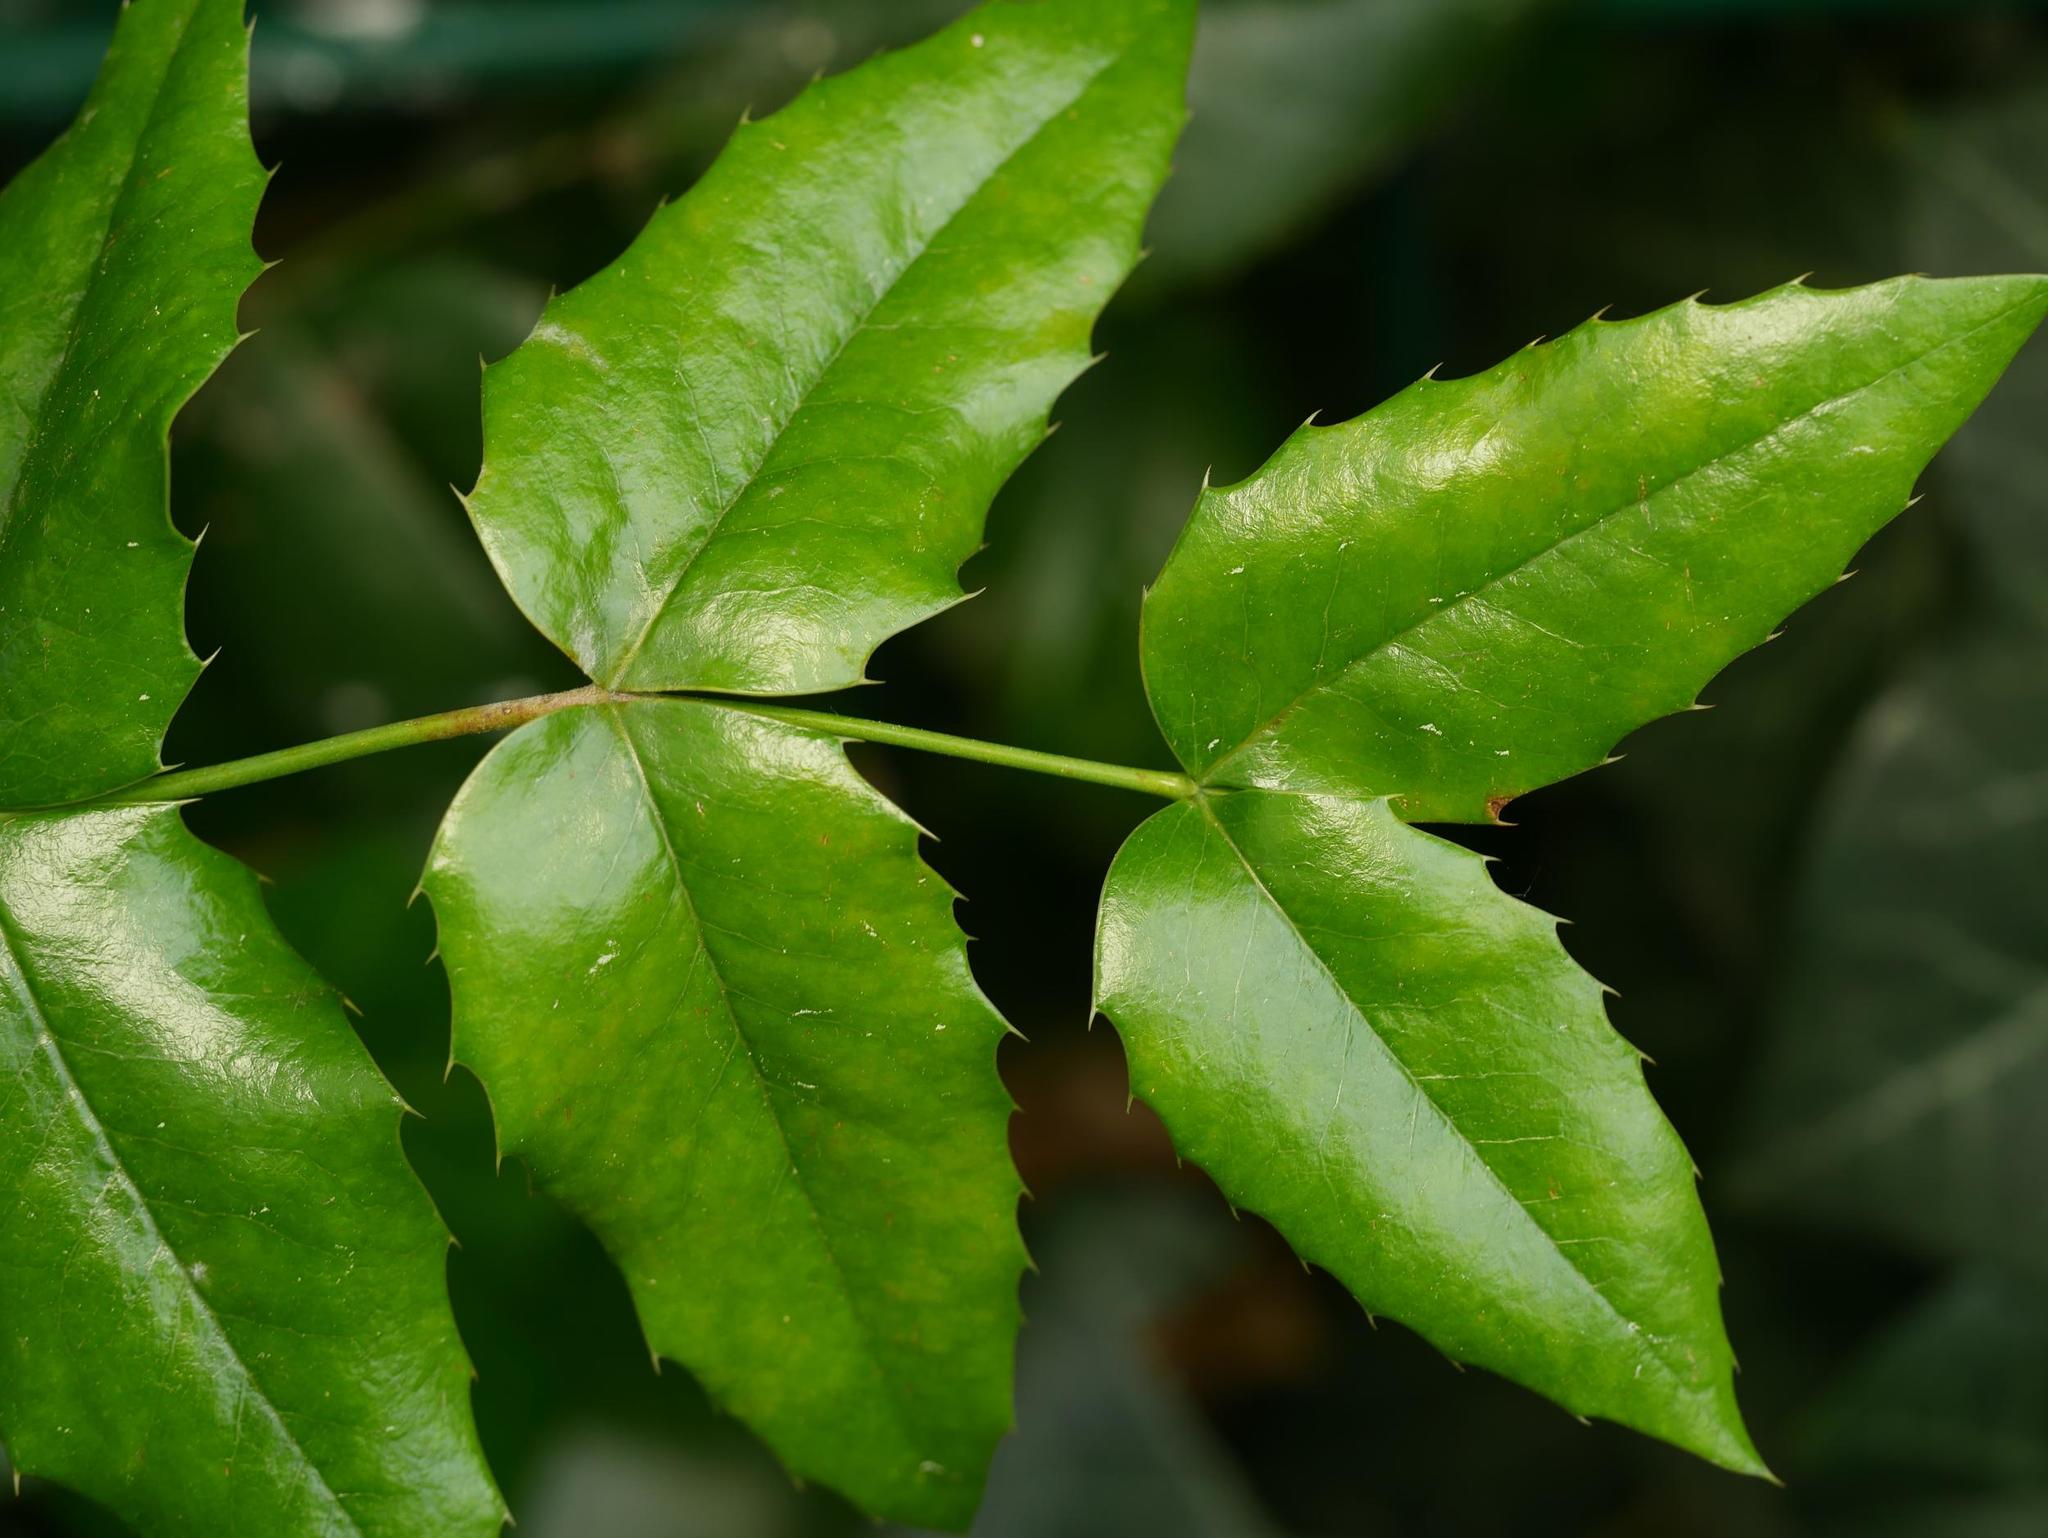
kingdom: Plantae
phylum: Tracheophyta
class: Magnoliopsida
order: Ranunculales
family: Berberidaceae
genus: Mahonia
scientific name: Mahonia aquifolium
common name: Oregon-grape
